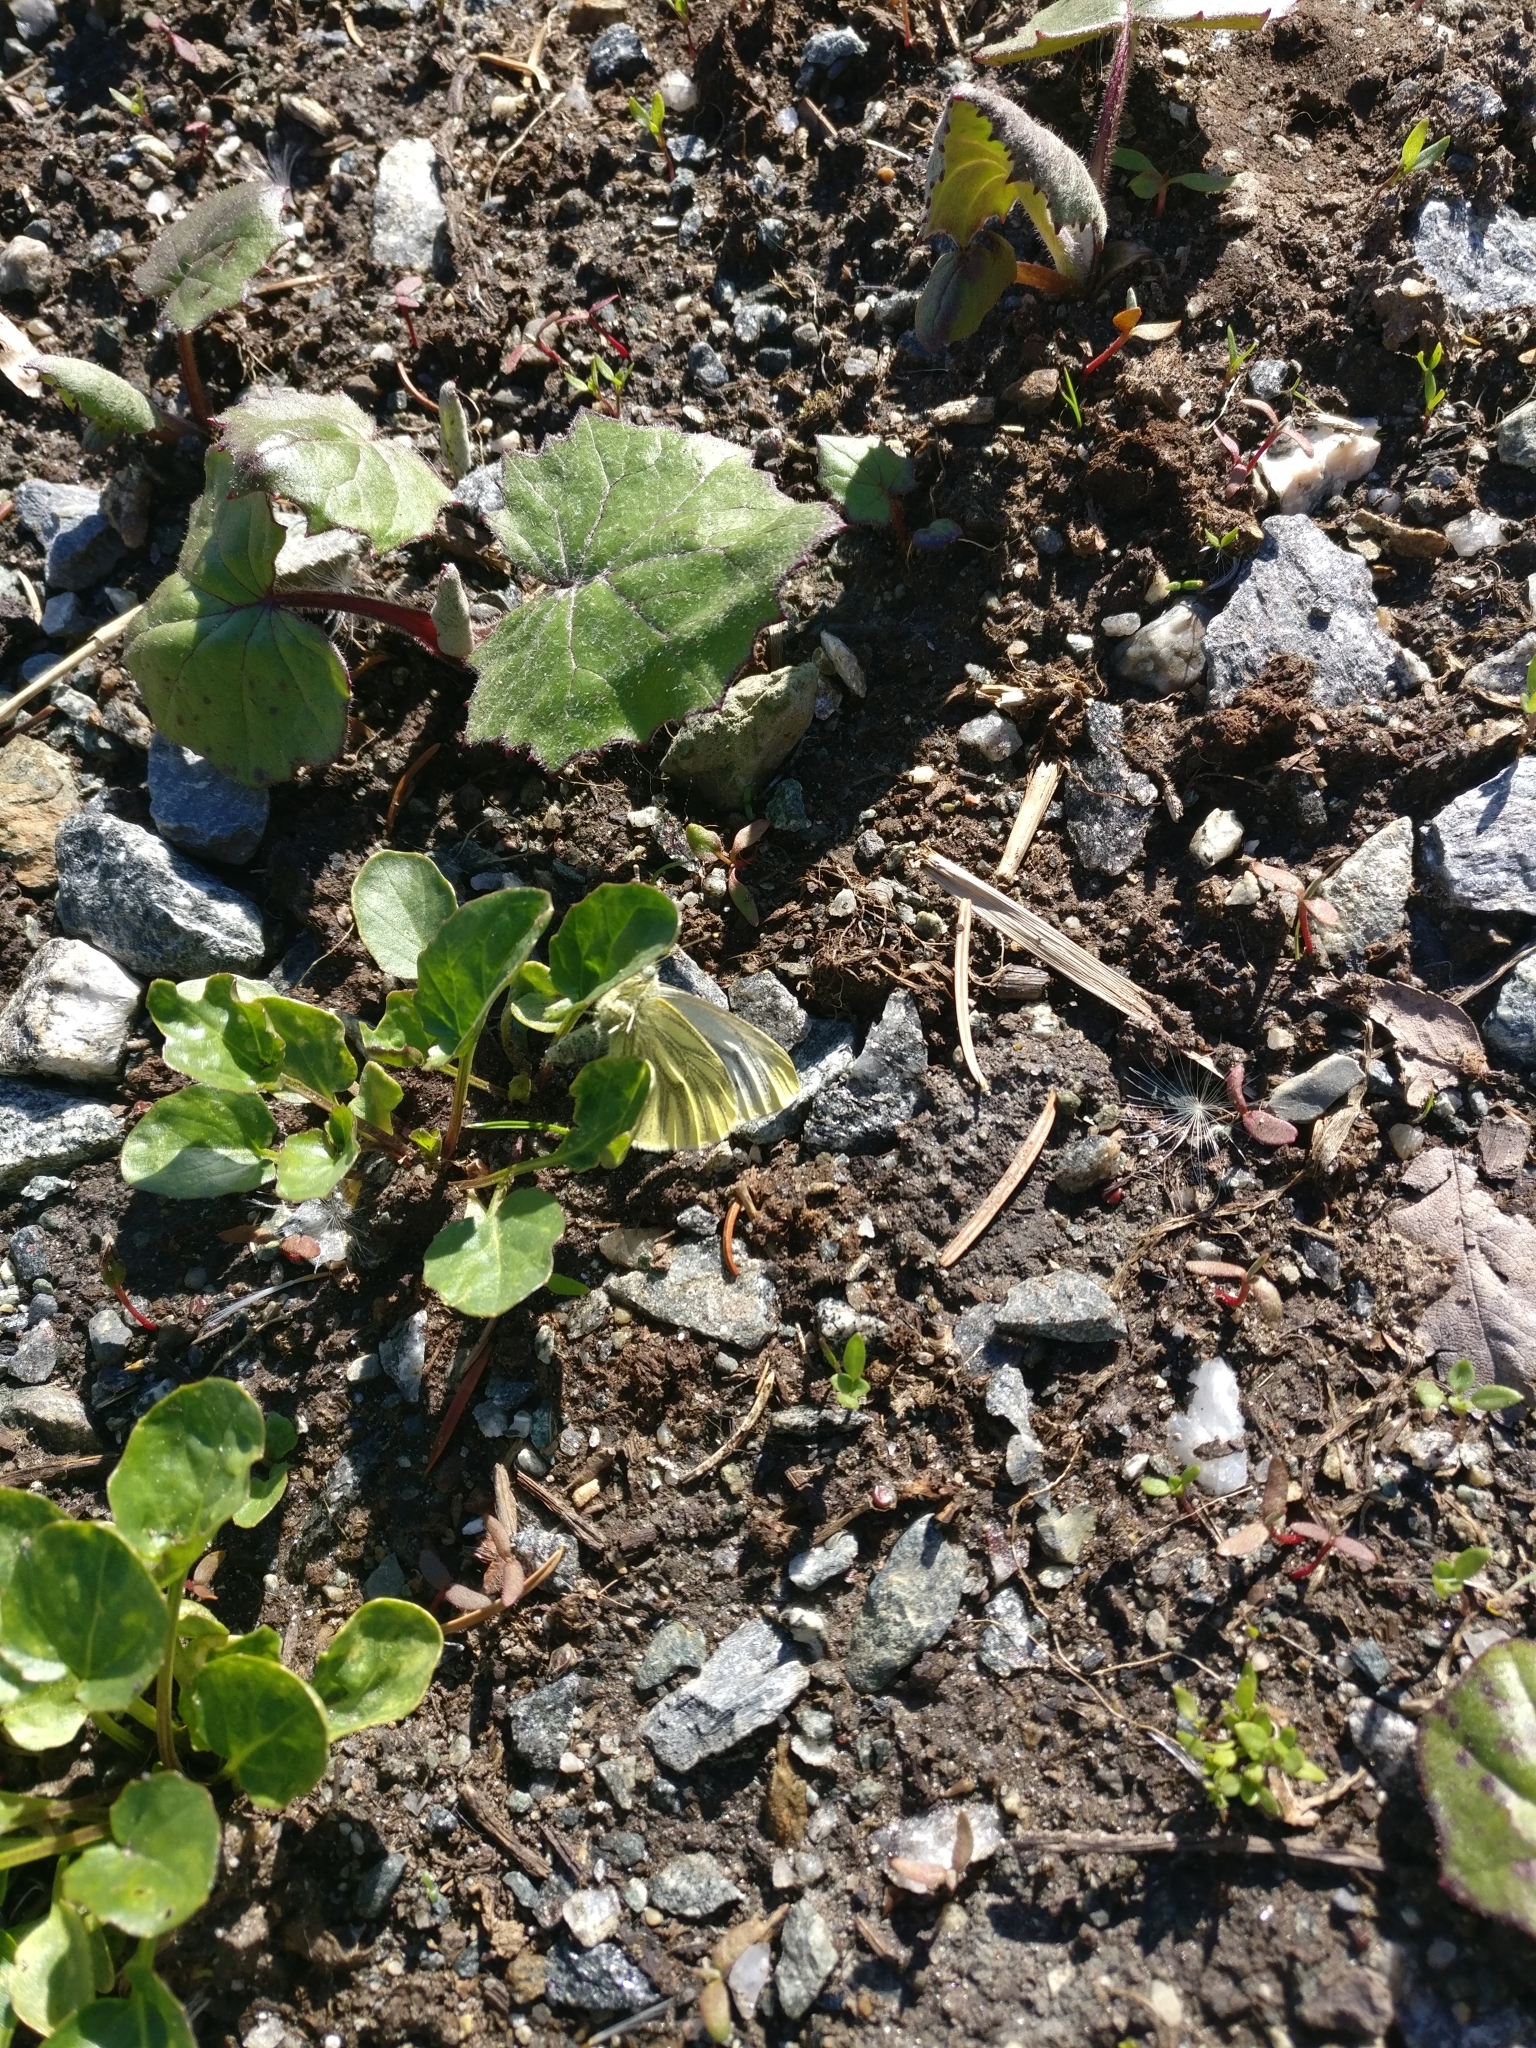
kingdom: Animalia
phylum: Arthropoda
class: Insecta
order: Lepidoptera
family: Pieridae
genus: Pieris
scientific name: Pieris napi
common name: Green-veined white
